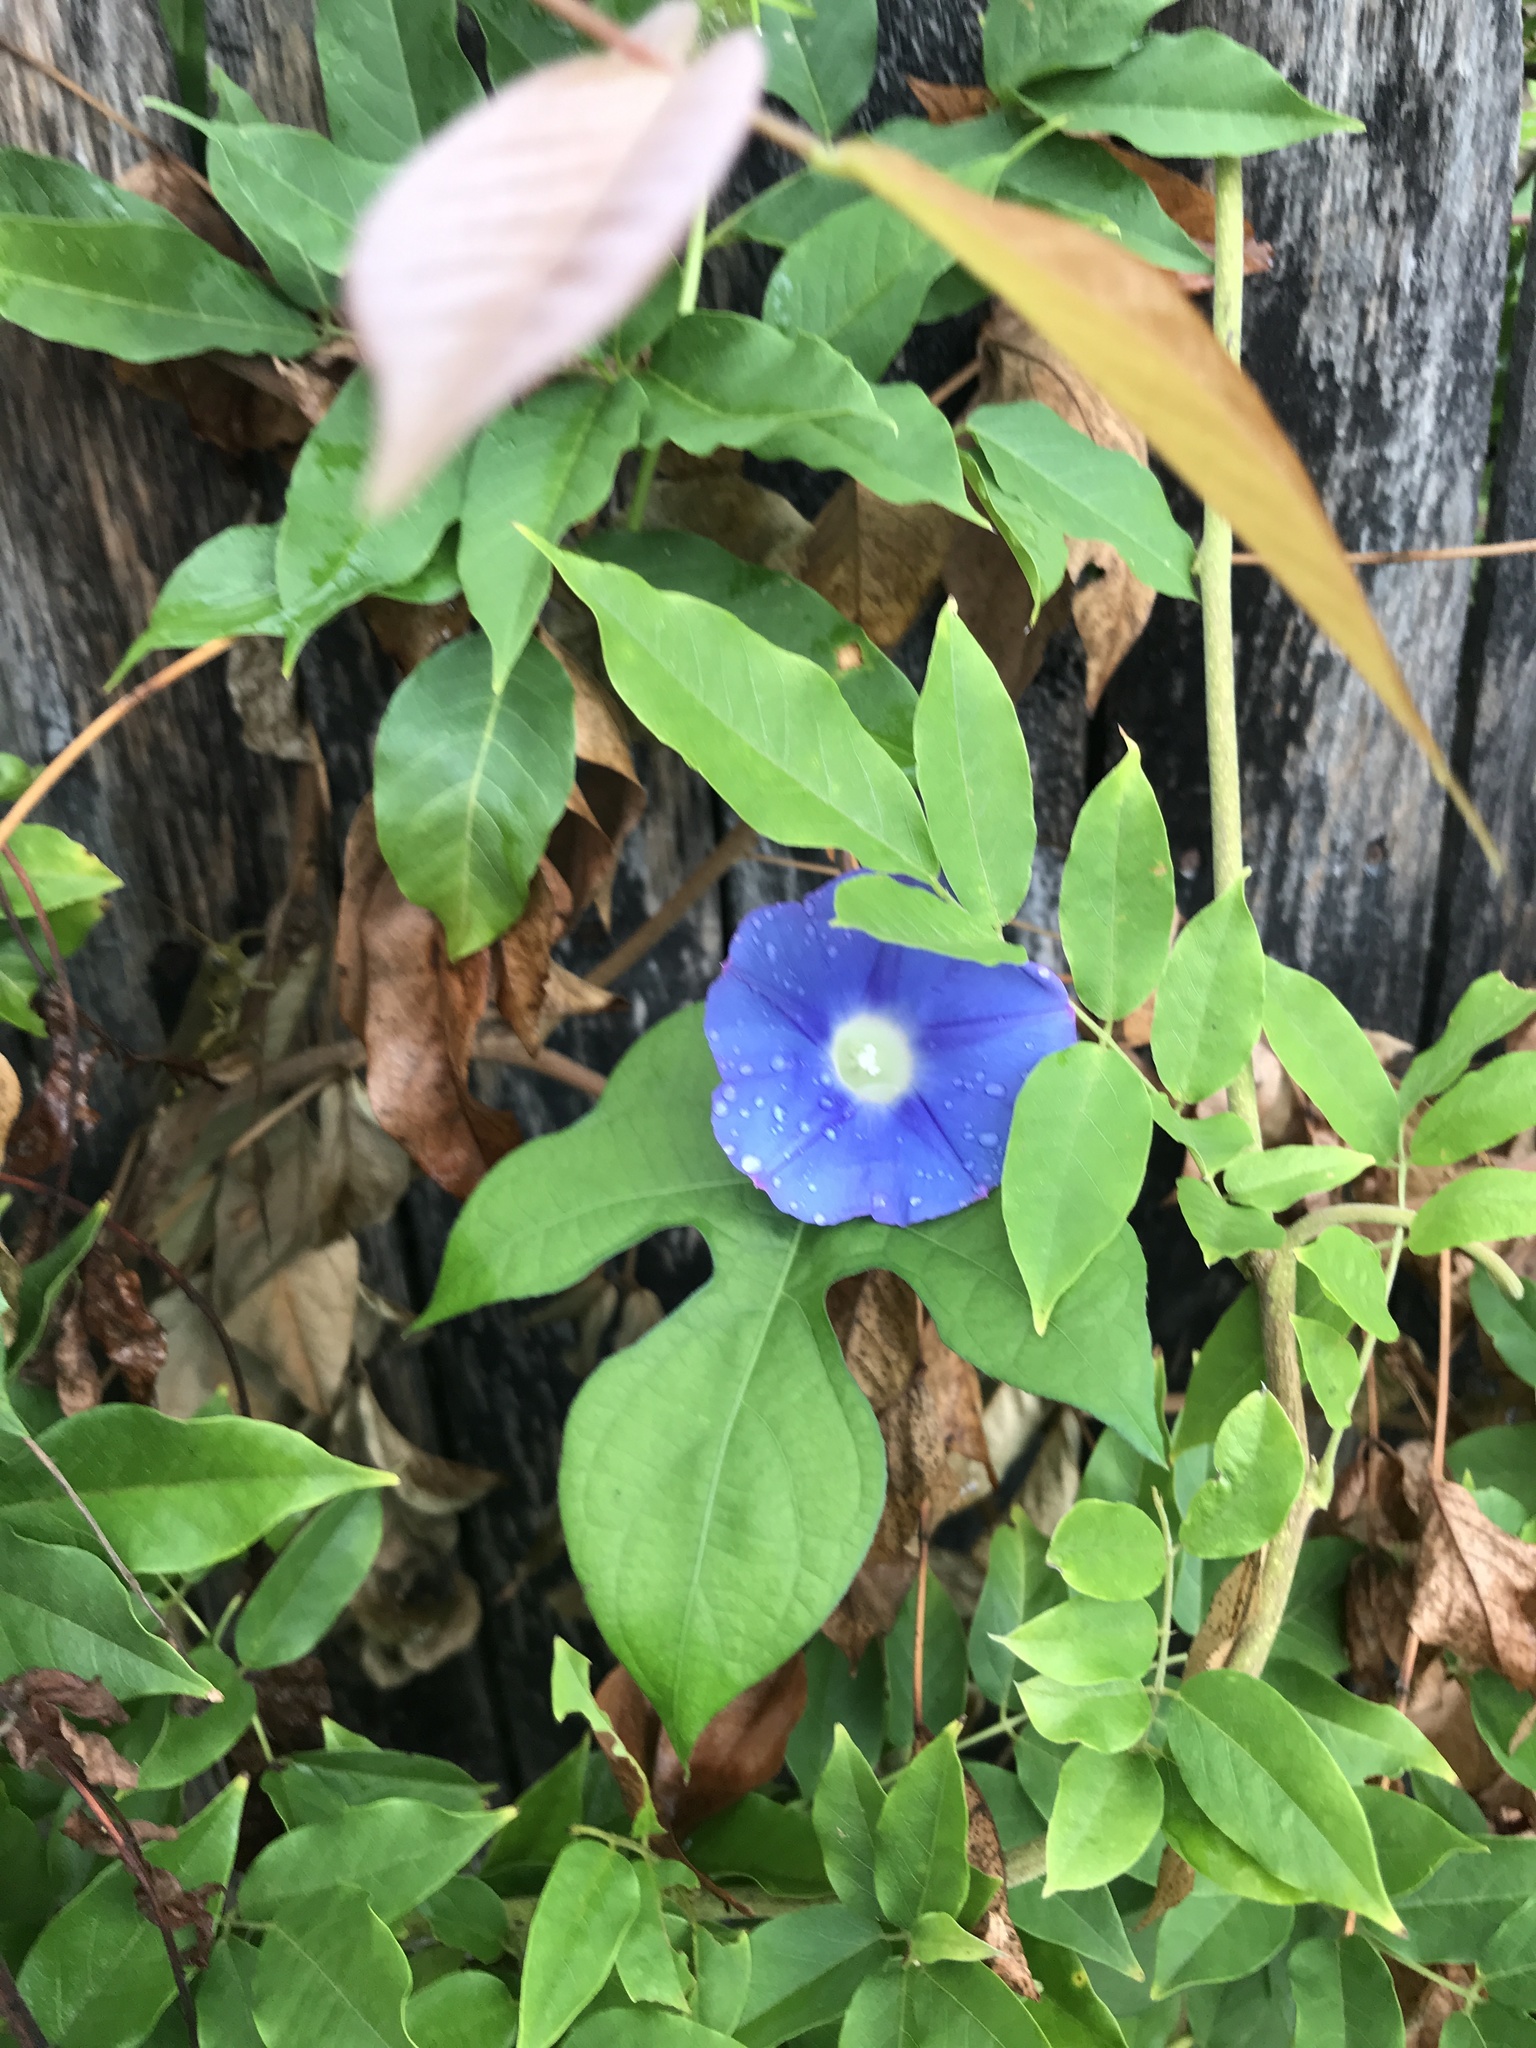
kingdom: Plantae
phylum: Tracheophyta
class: Magnoliopsida
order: Solanales
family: Convolvulaceae
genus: Ipomoea
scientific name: Ipomoea hederacea
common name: Ivy-leaved morning-glory
